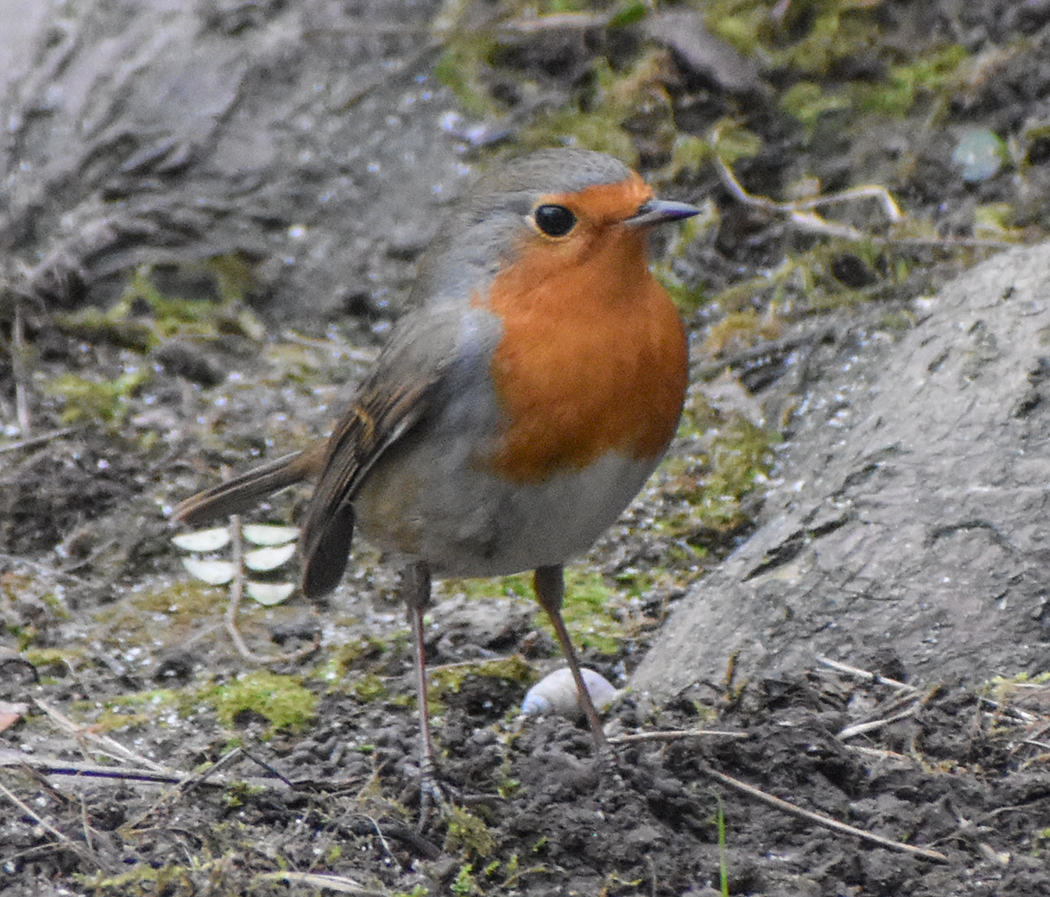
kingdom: Animalia
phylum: Chordata
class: Aves
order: Passeriformes
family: Muscicapidae
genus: Erithacus
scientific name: Erithacus rubecula
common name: European robin
